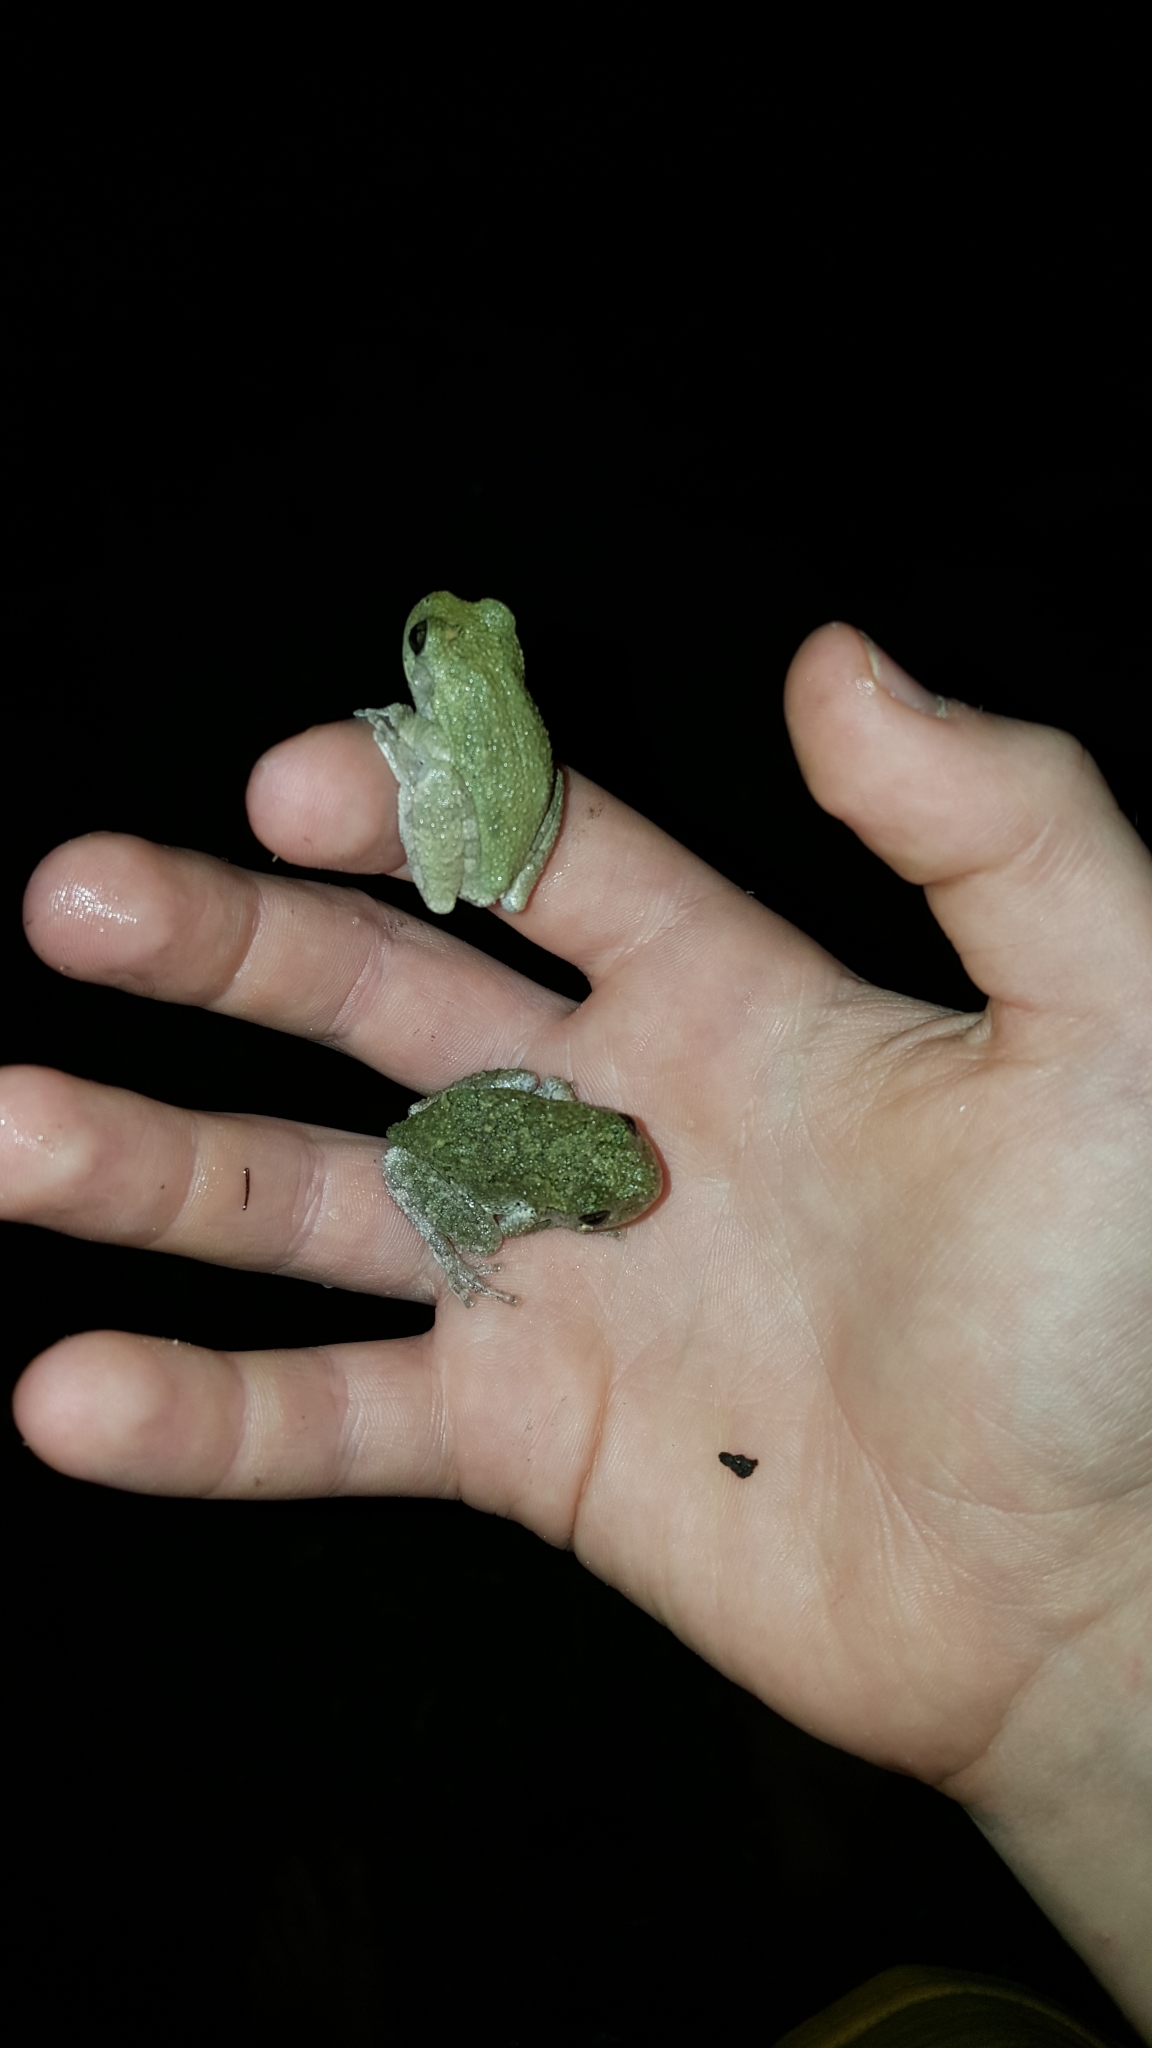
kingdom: Animalia
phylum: Chordata
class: Amphibia
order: Anura
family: Hylidae
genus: Dryophytes
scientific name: Dryophytes chrysoscelis
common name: Cope's gray treefrog
